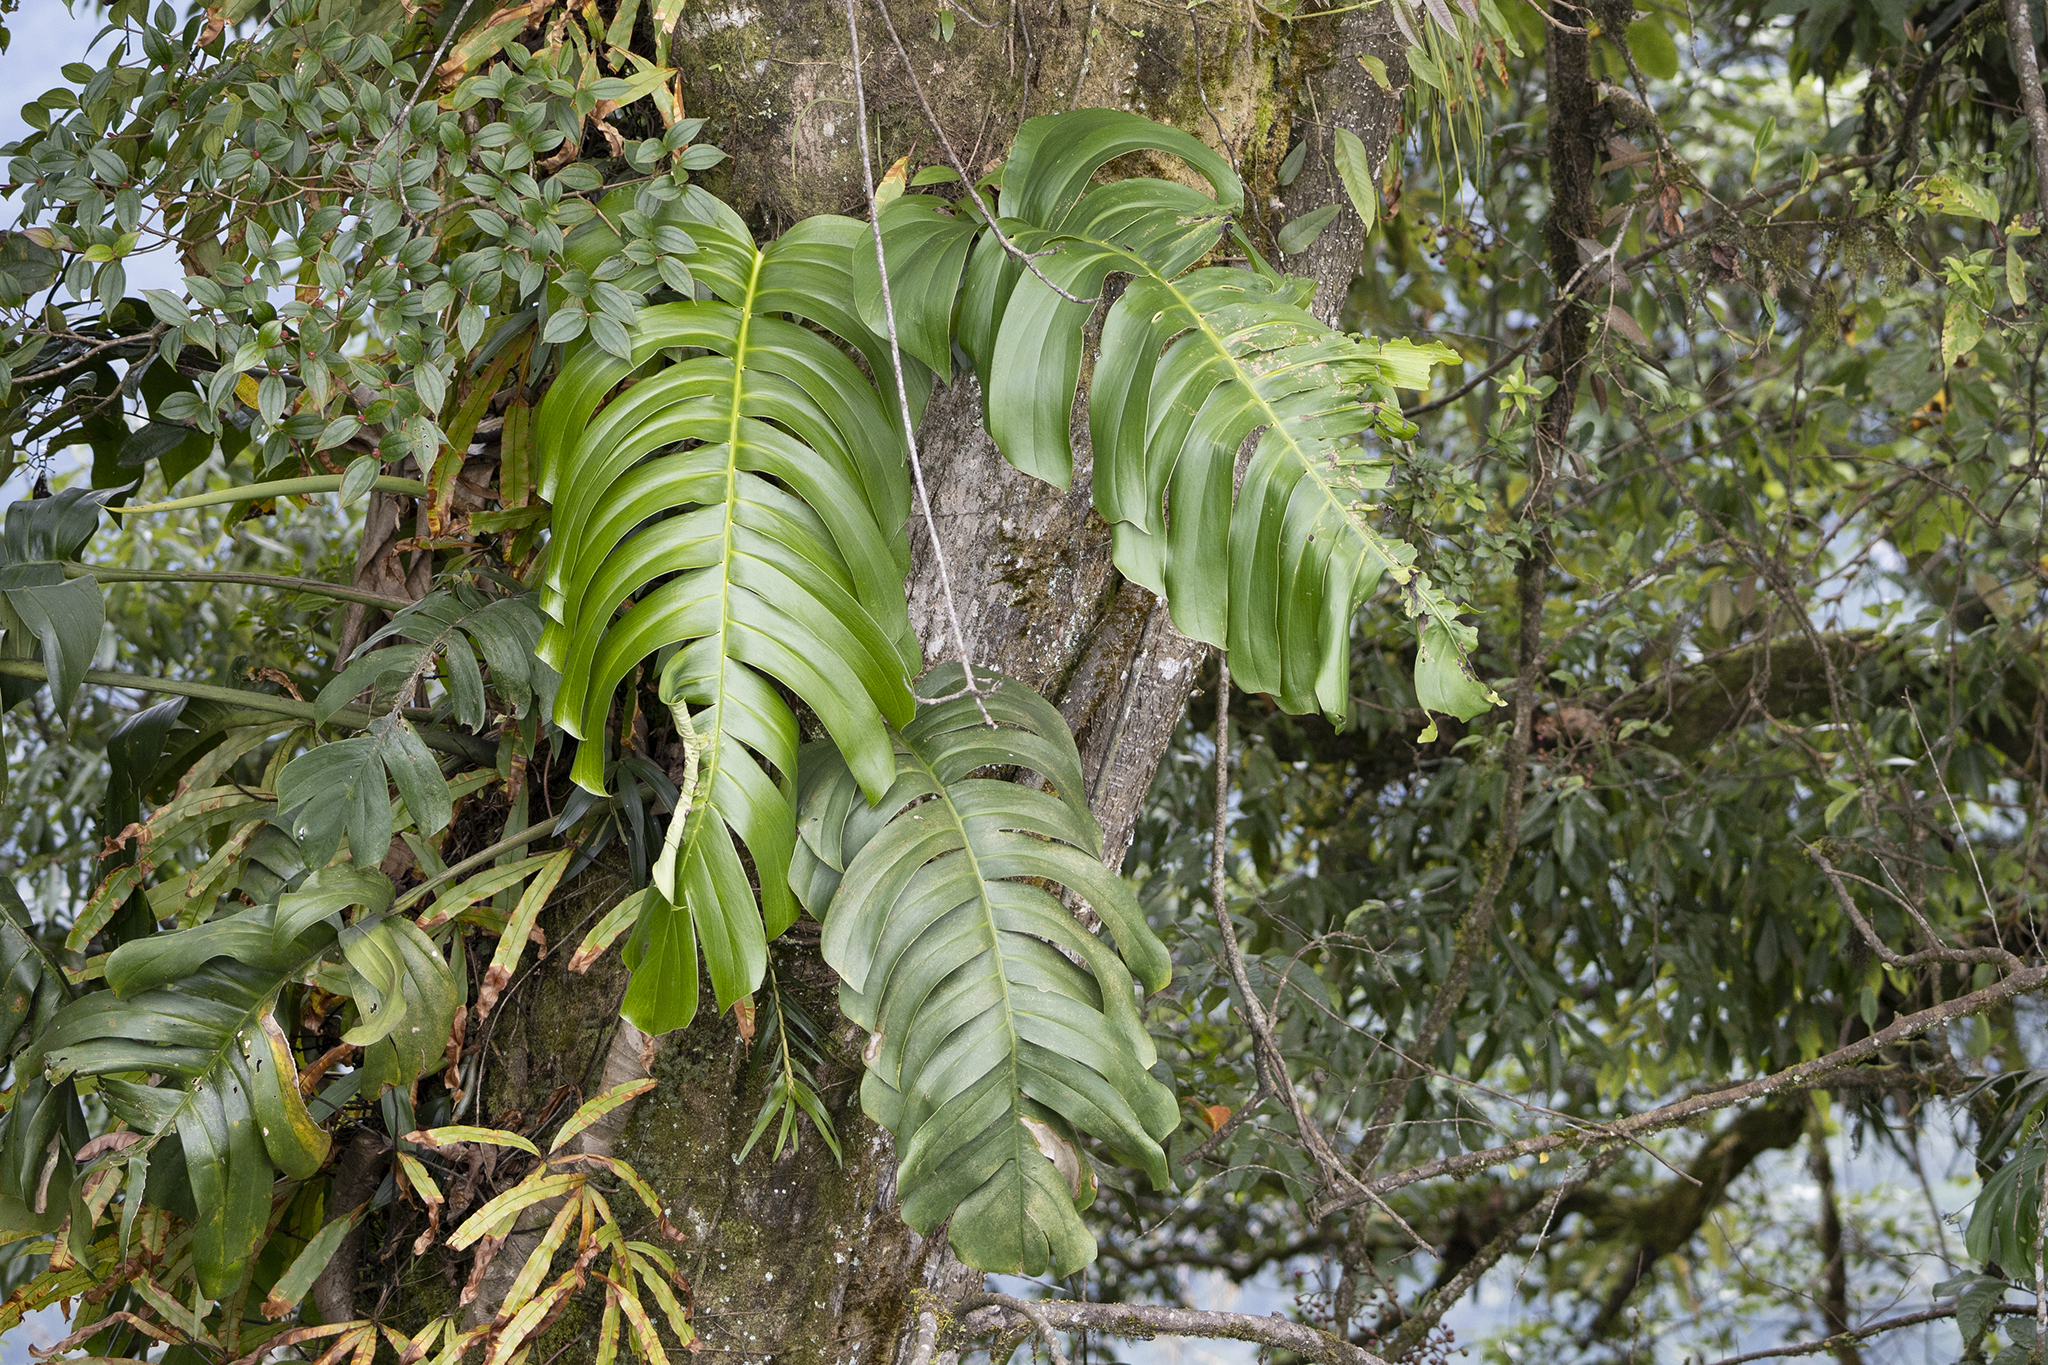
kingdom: Plantae
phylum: Tracheophyta
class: Liliopsida
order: Alismatales
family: Araceae
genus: Epipremnum
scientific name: Epipremnum pinnatum
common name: Centipede tongavine
